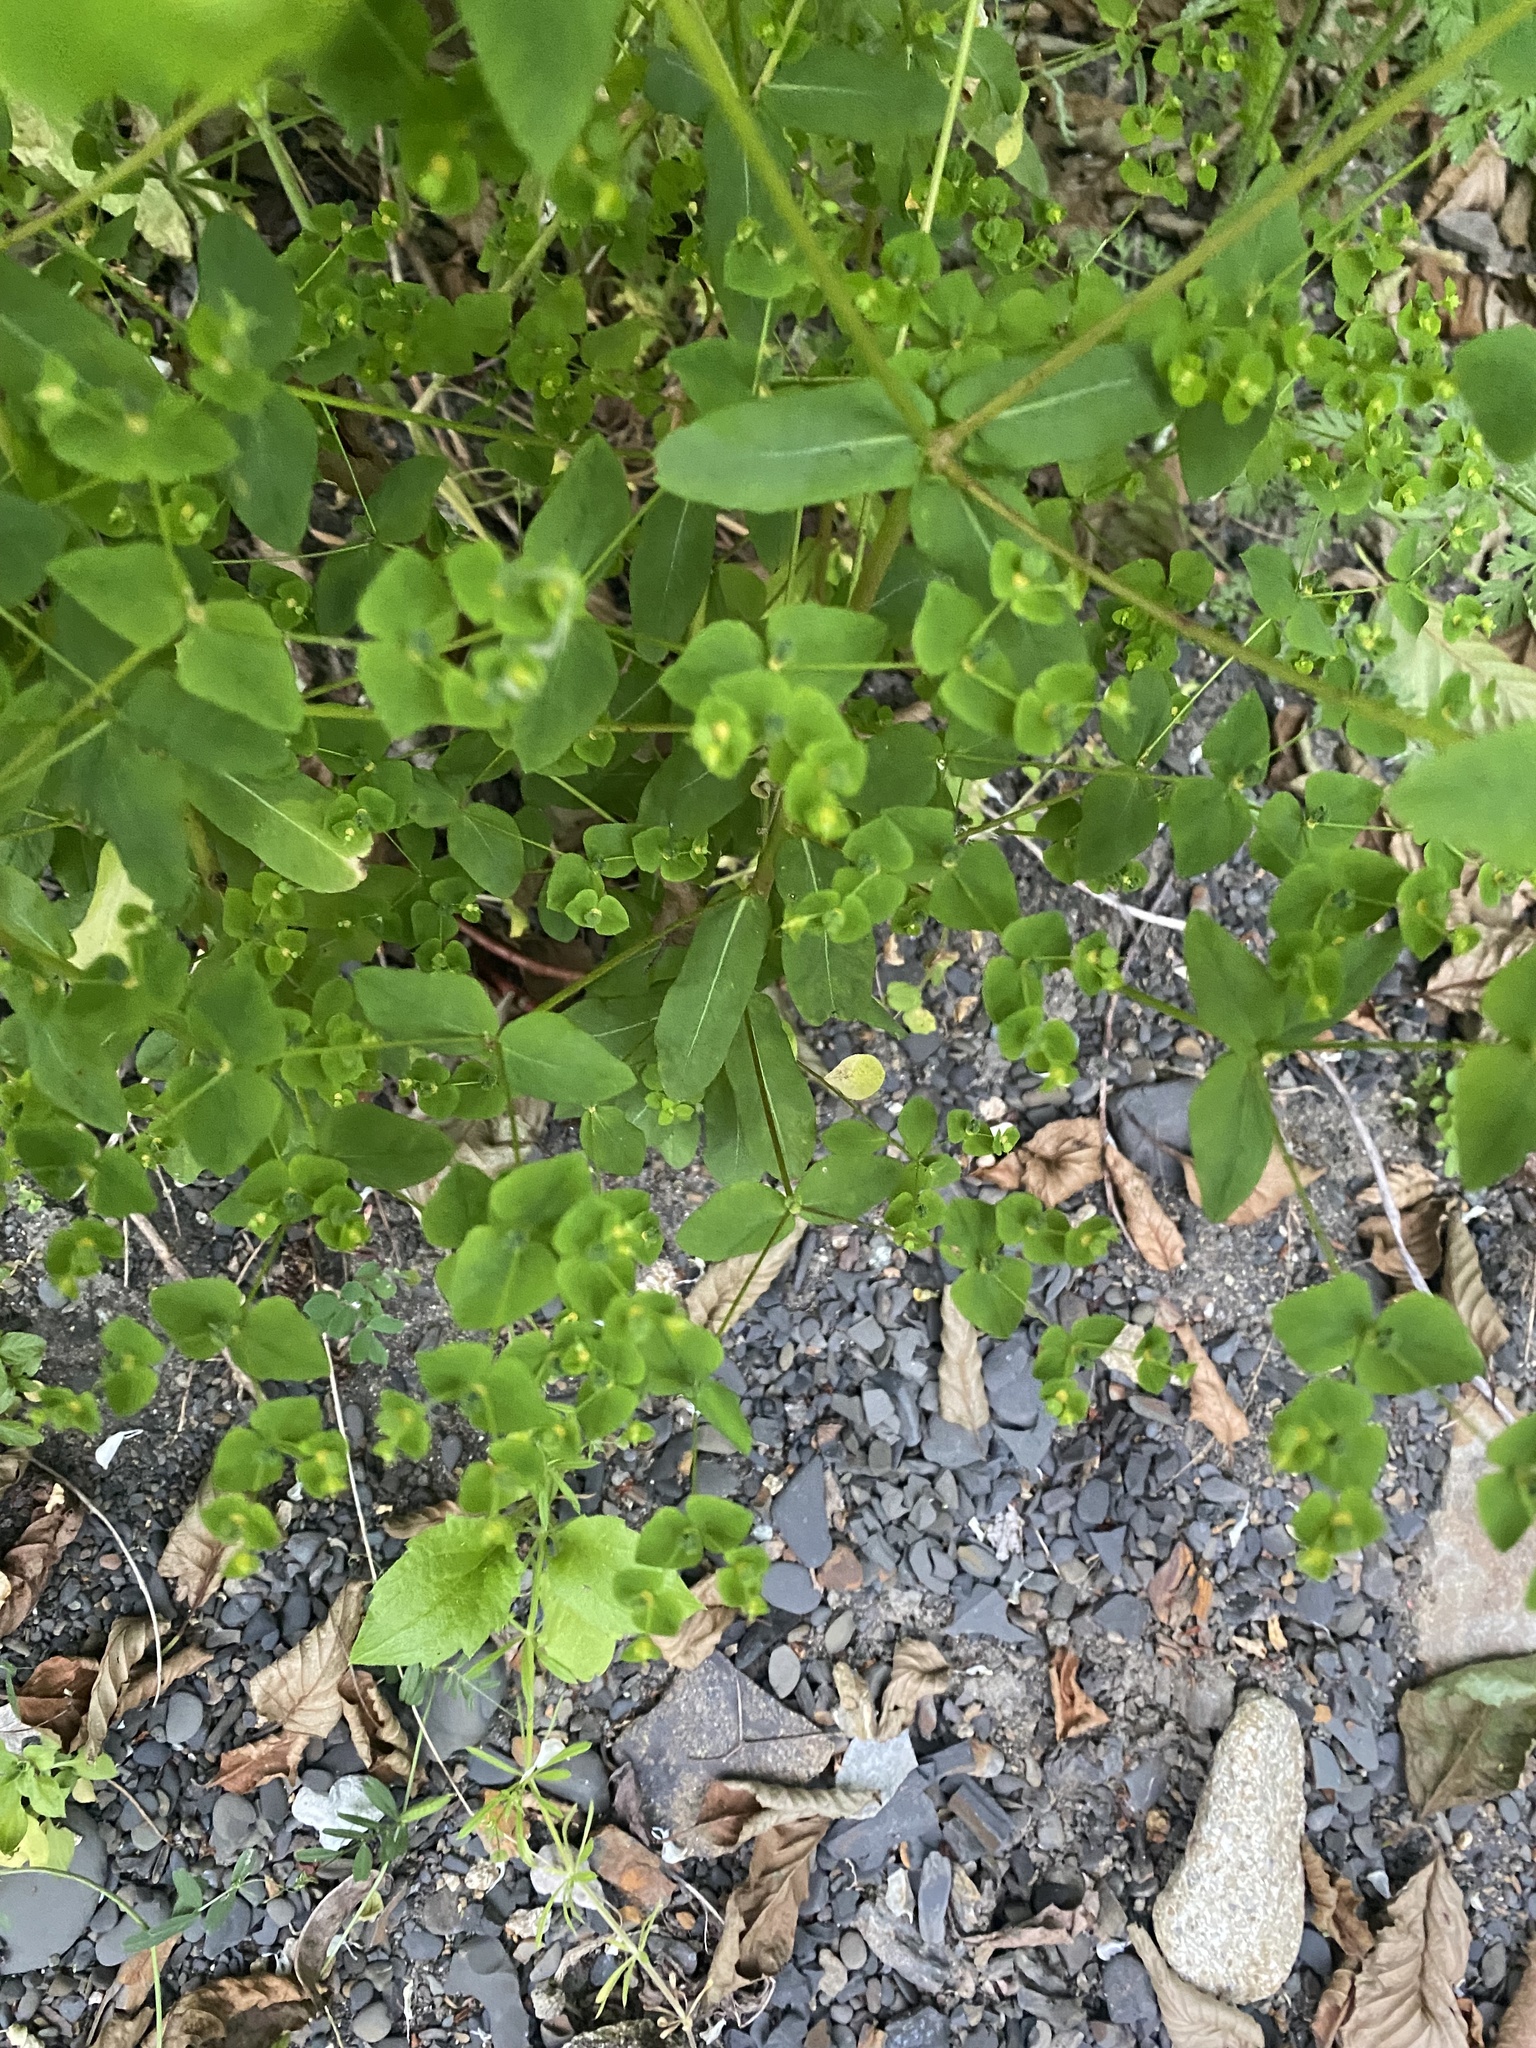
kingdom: Plantae
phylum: Tracheophyta
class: Magnoliopsida
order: Malpighiales
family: Euphorbiaceae
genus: Euphorbia
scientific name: Euphorbia stricta
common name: Upright spurge
